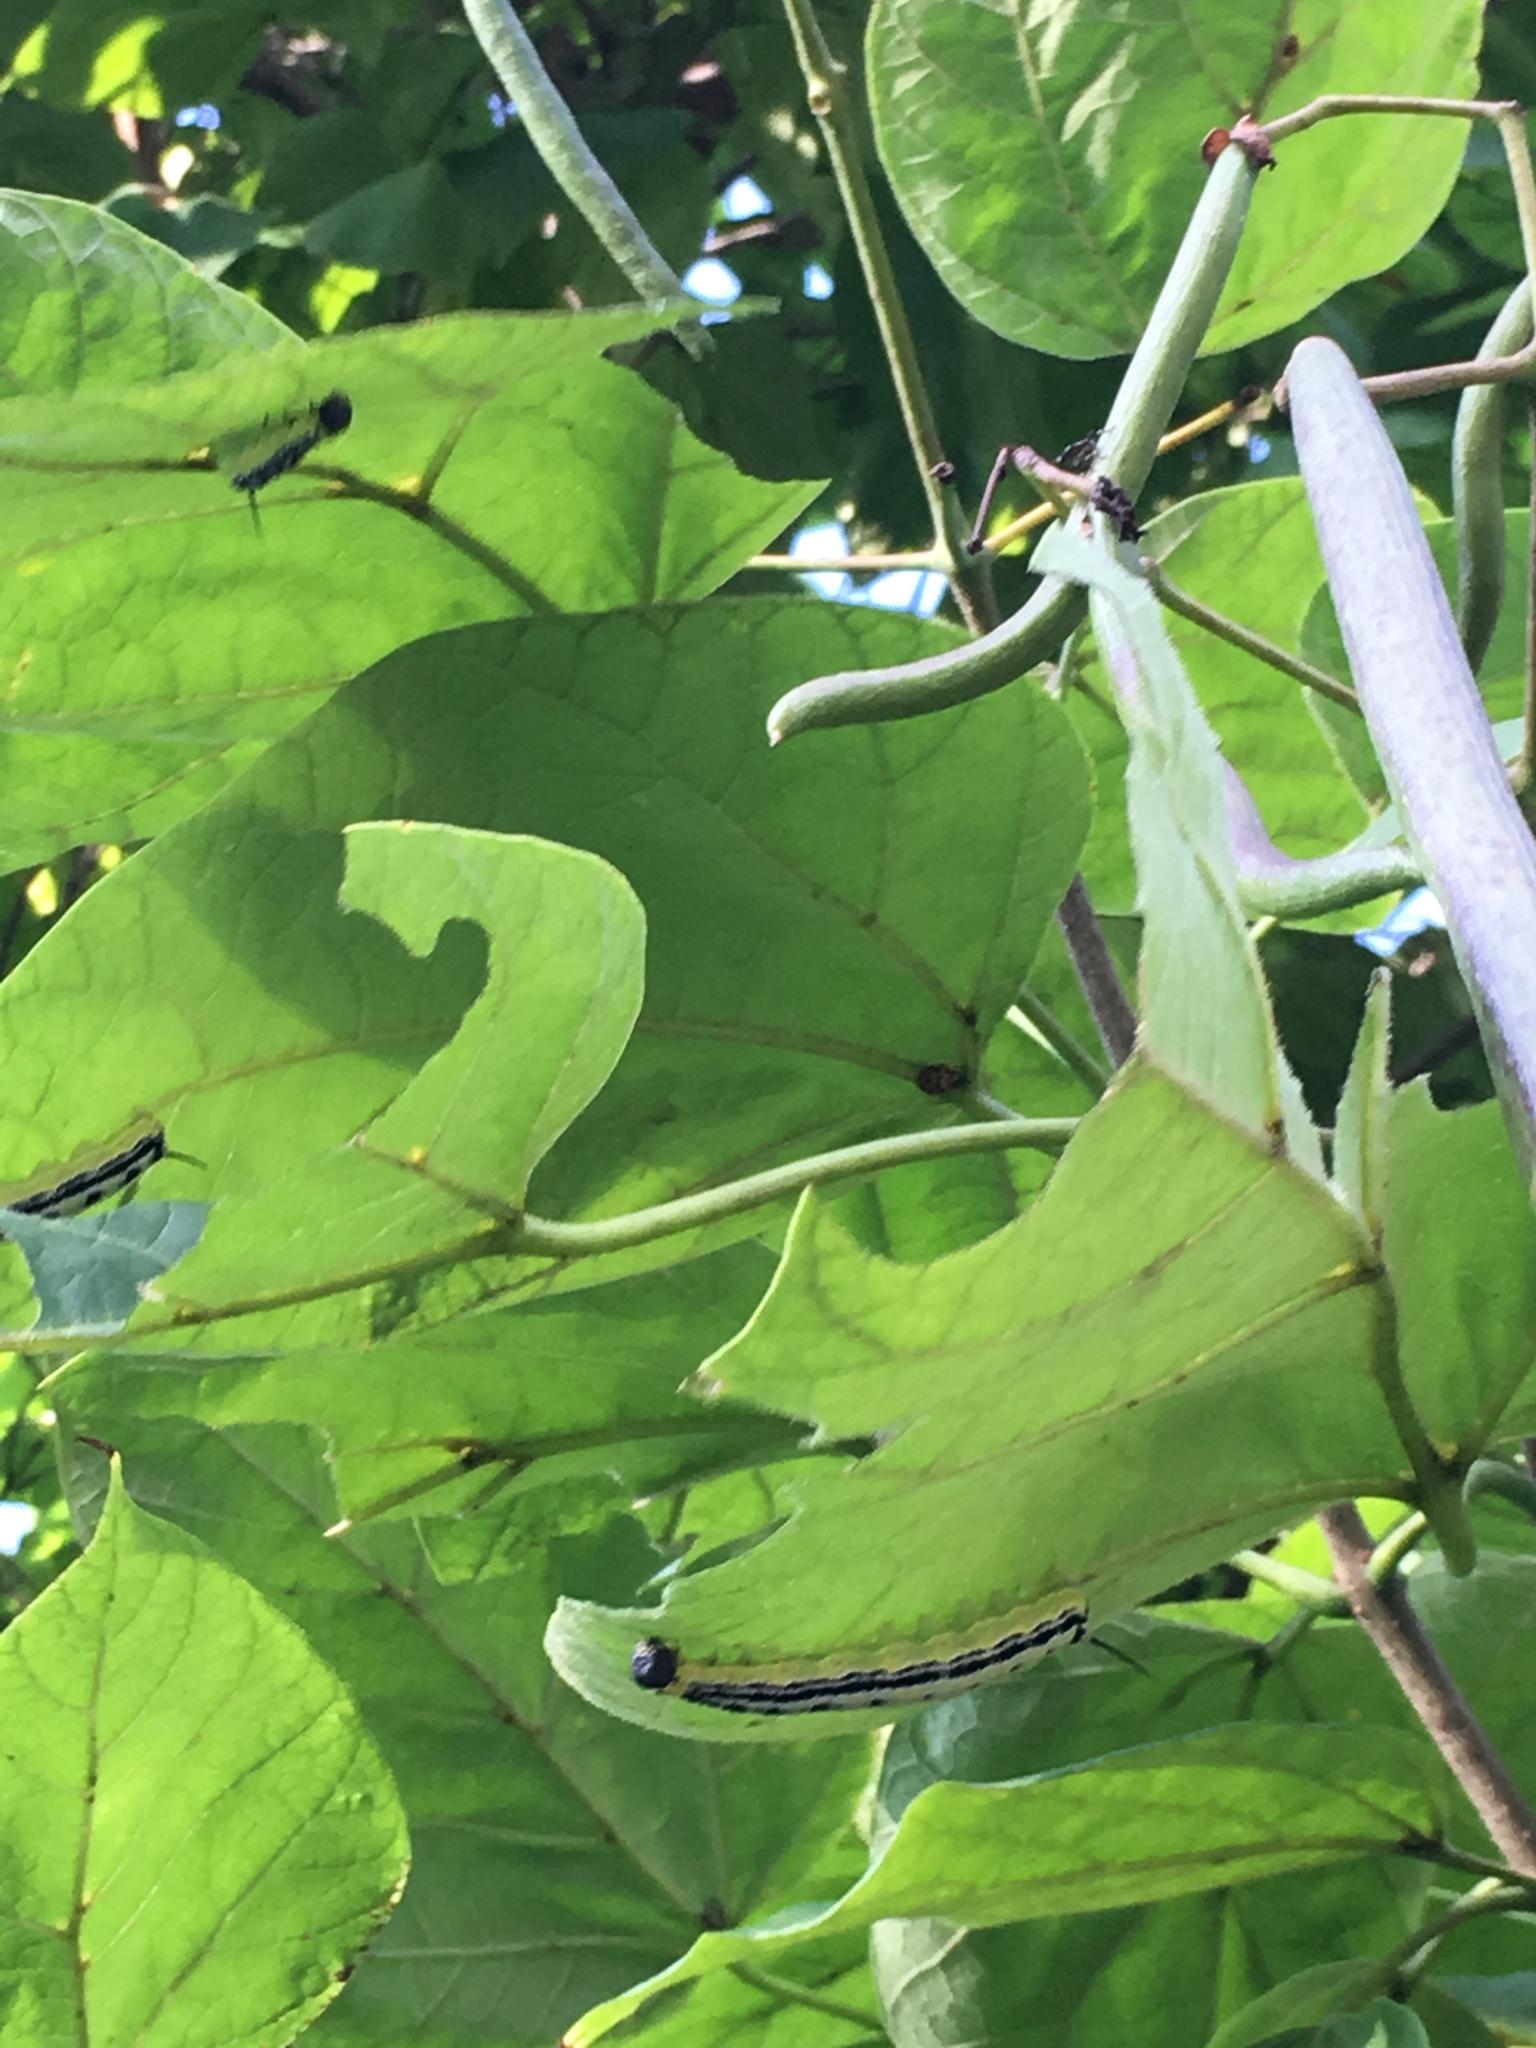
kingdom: Animalia
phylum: Arthropoda
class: Insecta
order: Lepidoptera
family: Sphingidae
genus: Ceratomia
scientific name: Ceratomia catalpae
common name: Catalpa hornworm
